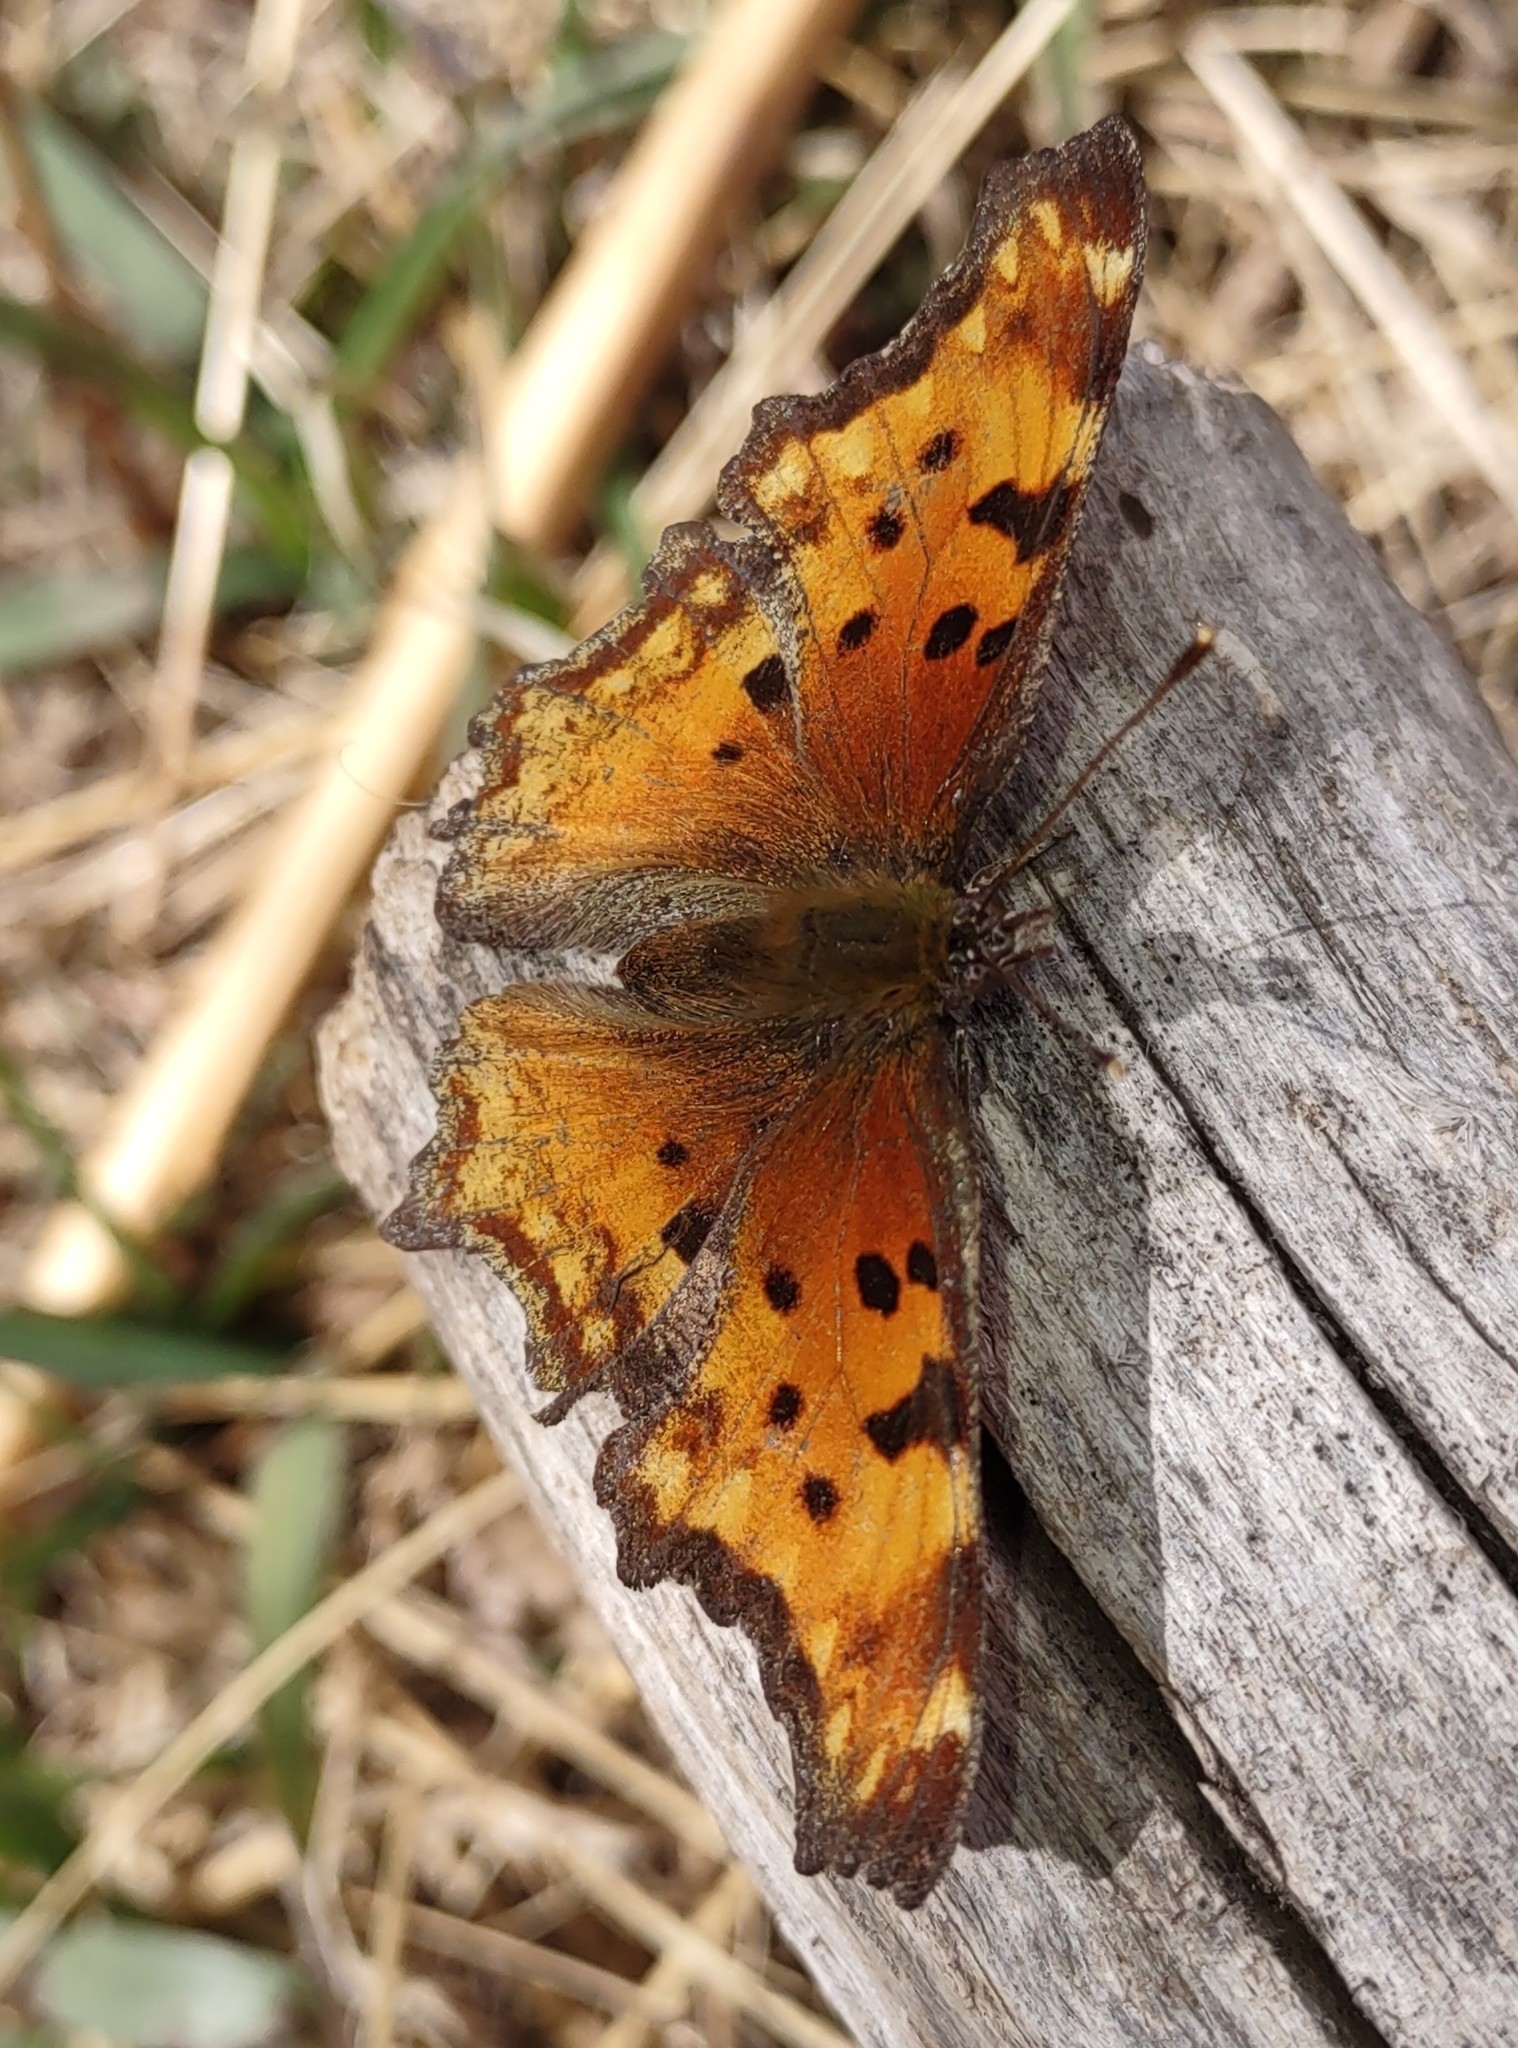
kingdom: Animalia
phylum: Arthropoda
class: Insecta
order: Lepidoptera
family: Nymphalidae
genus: Polygonia
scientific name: Polygonia gracilis
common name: Hoary comma
